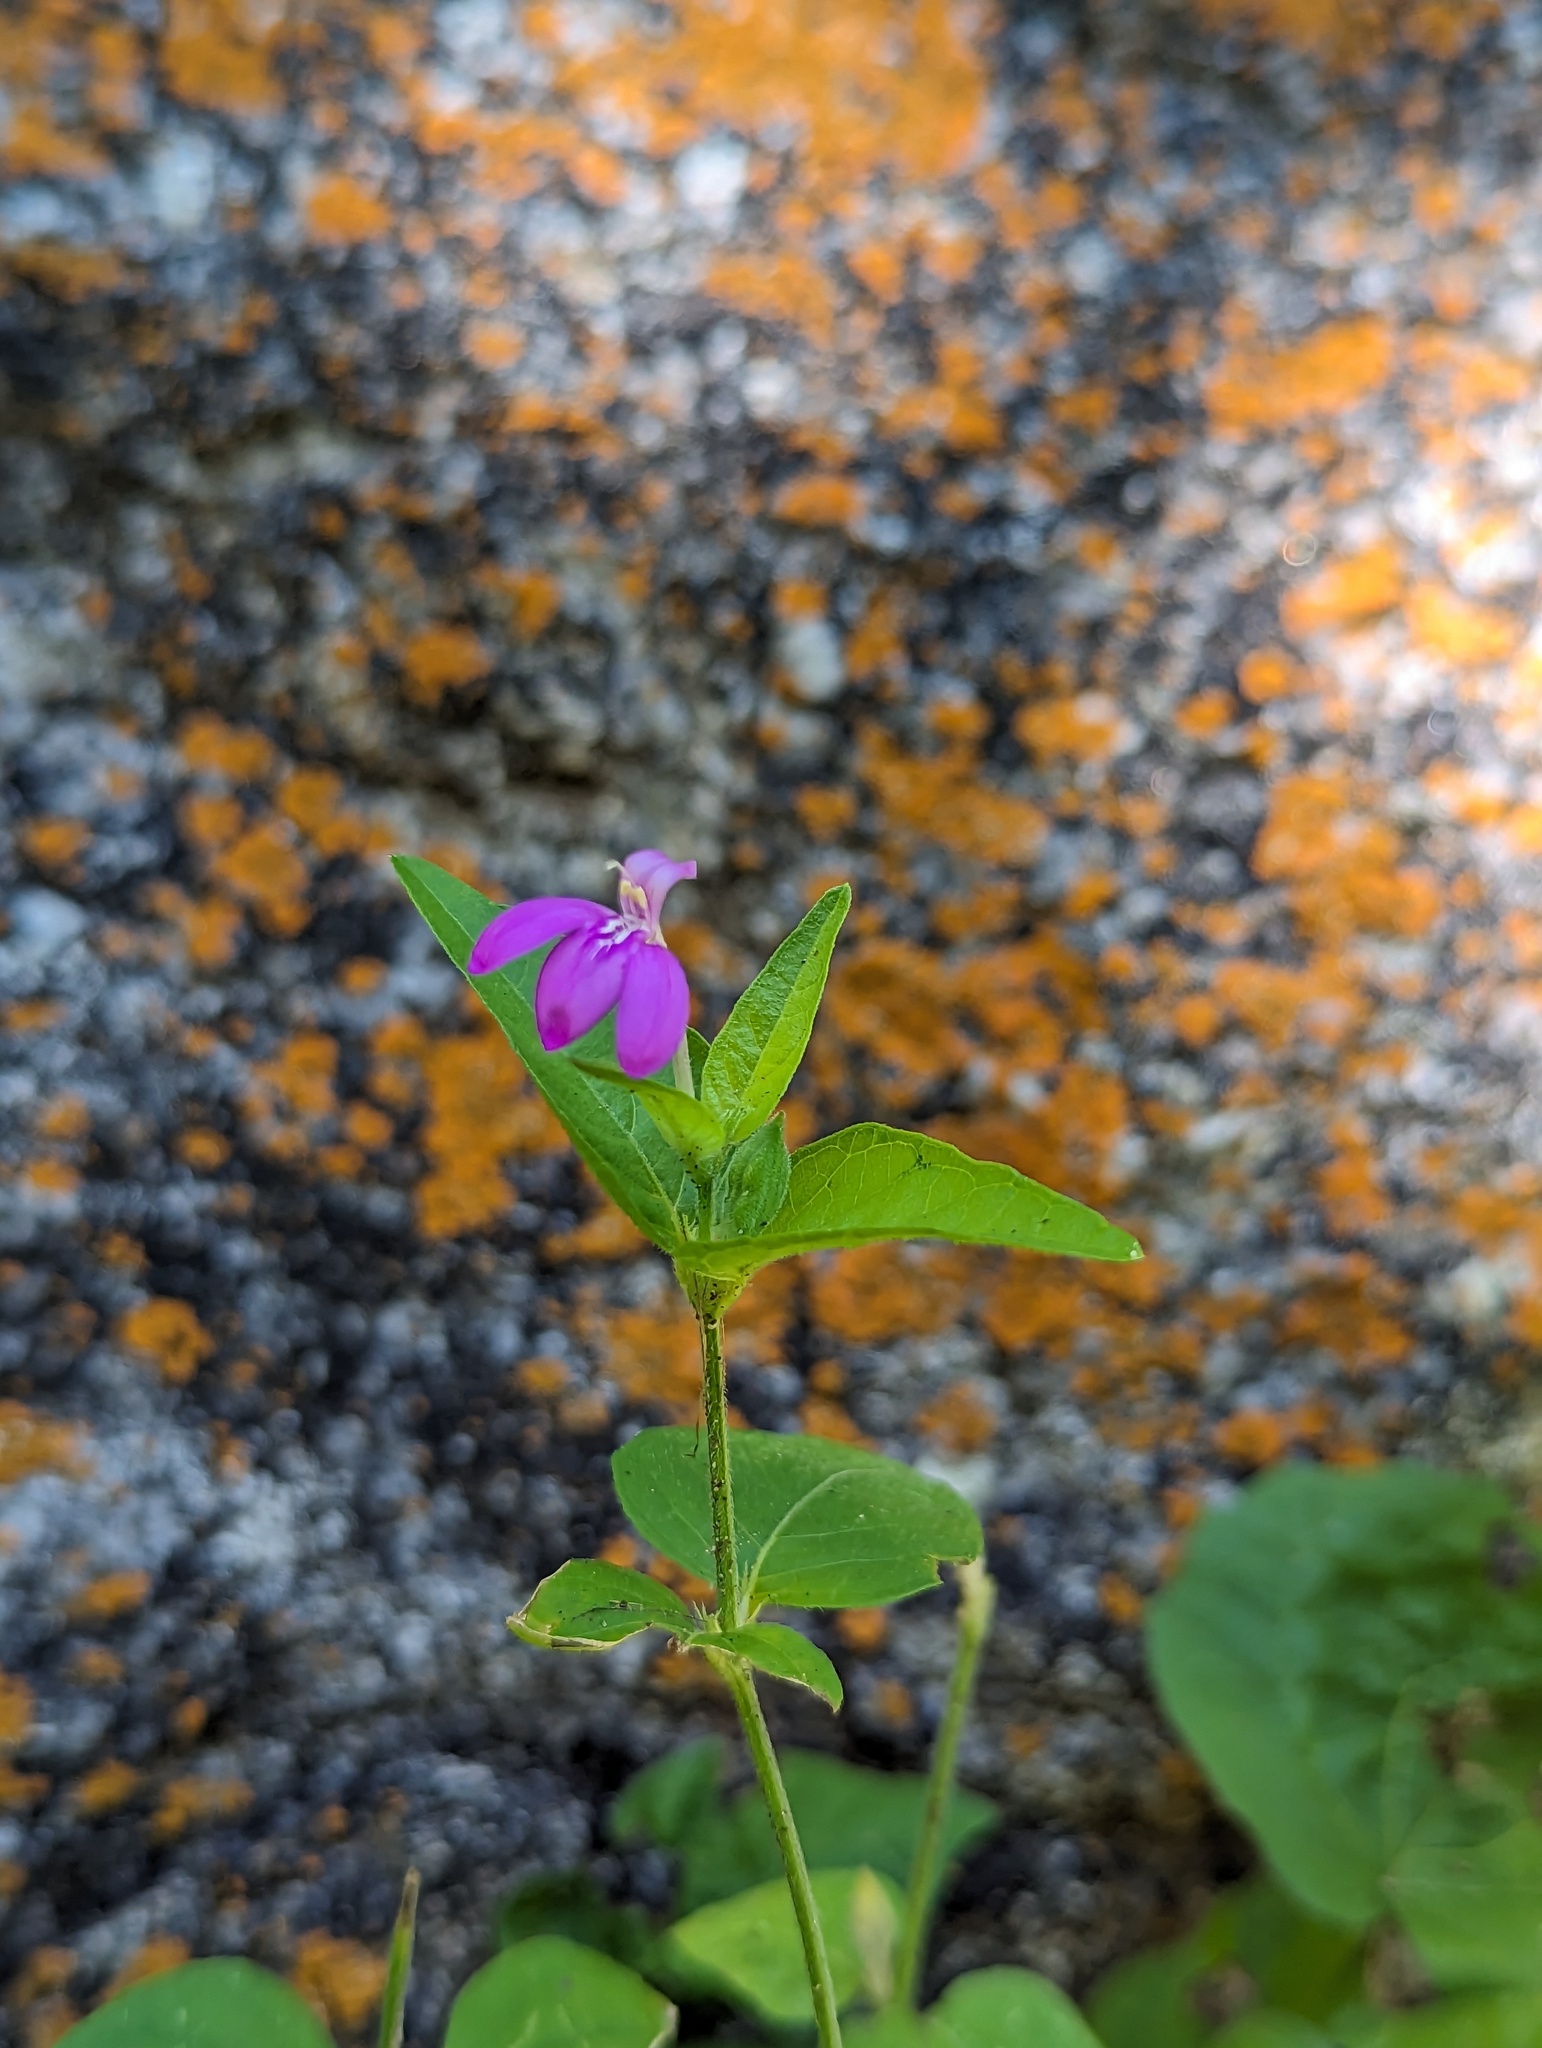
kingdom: Plantae
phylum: Tracheophyta
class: Magnoliopsida
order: Lamiales
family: Acanthaceae
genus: Dianthera
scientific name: Dianthera incerta
